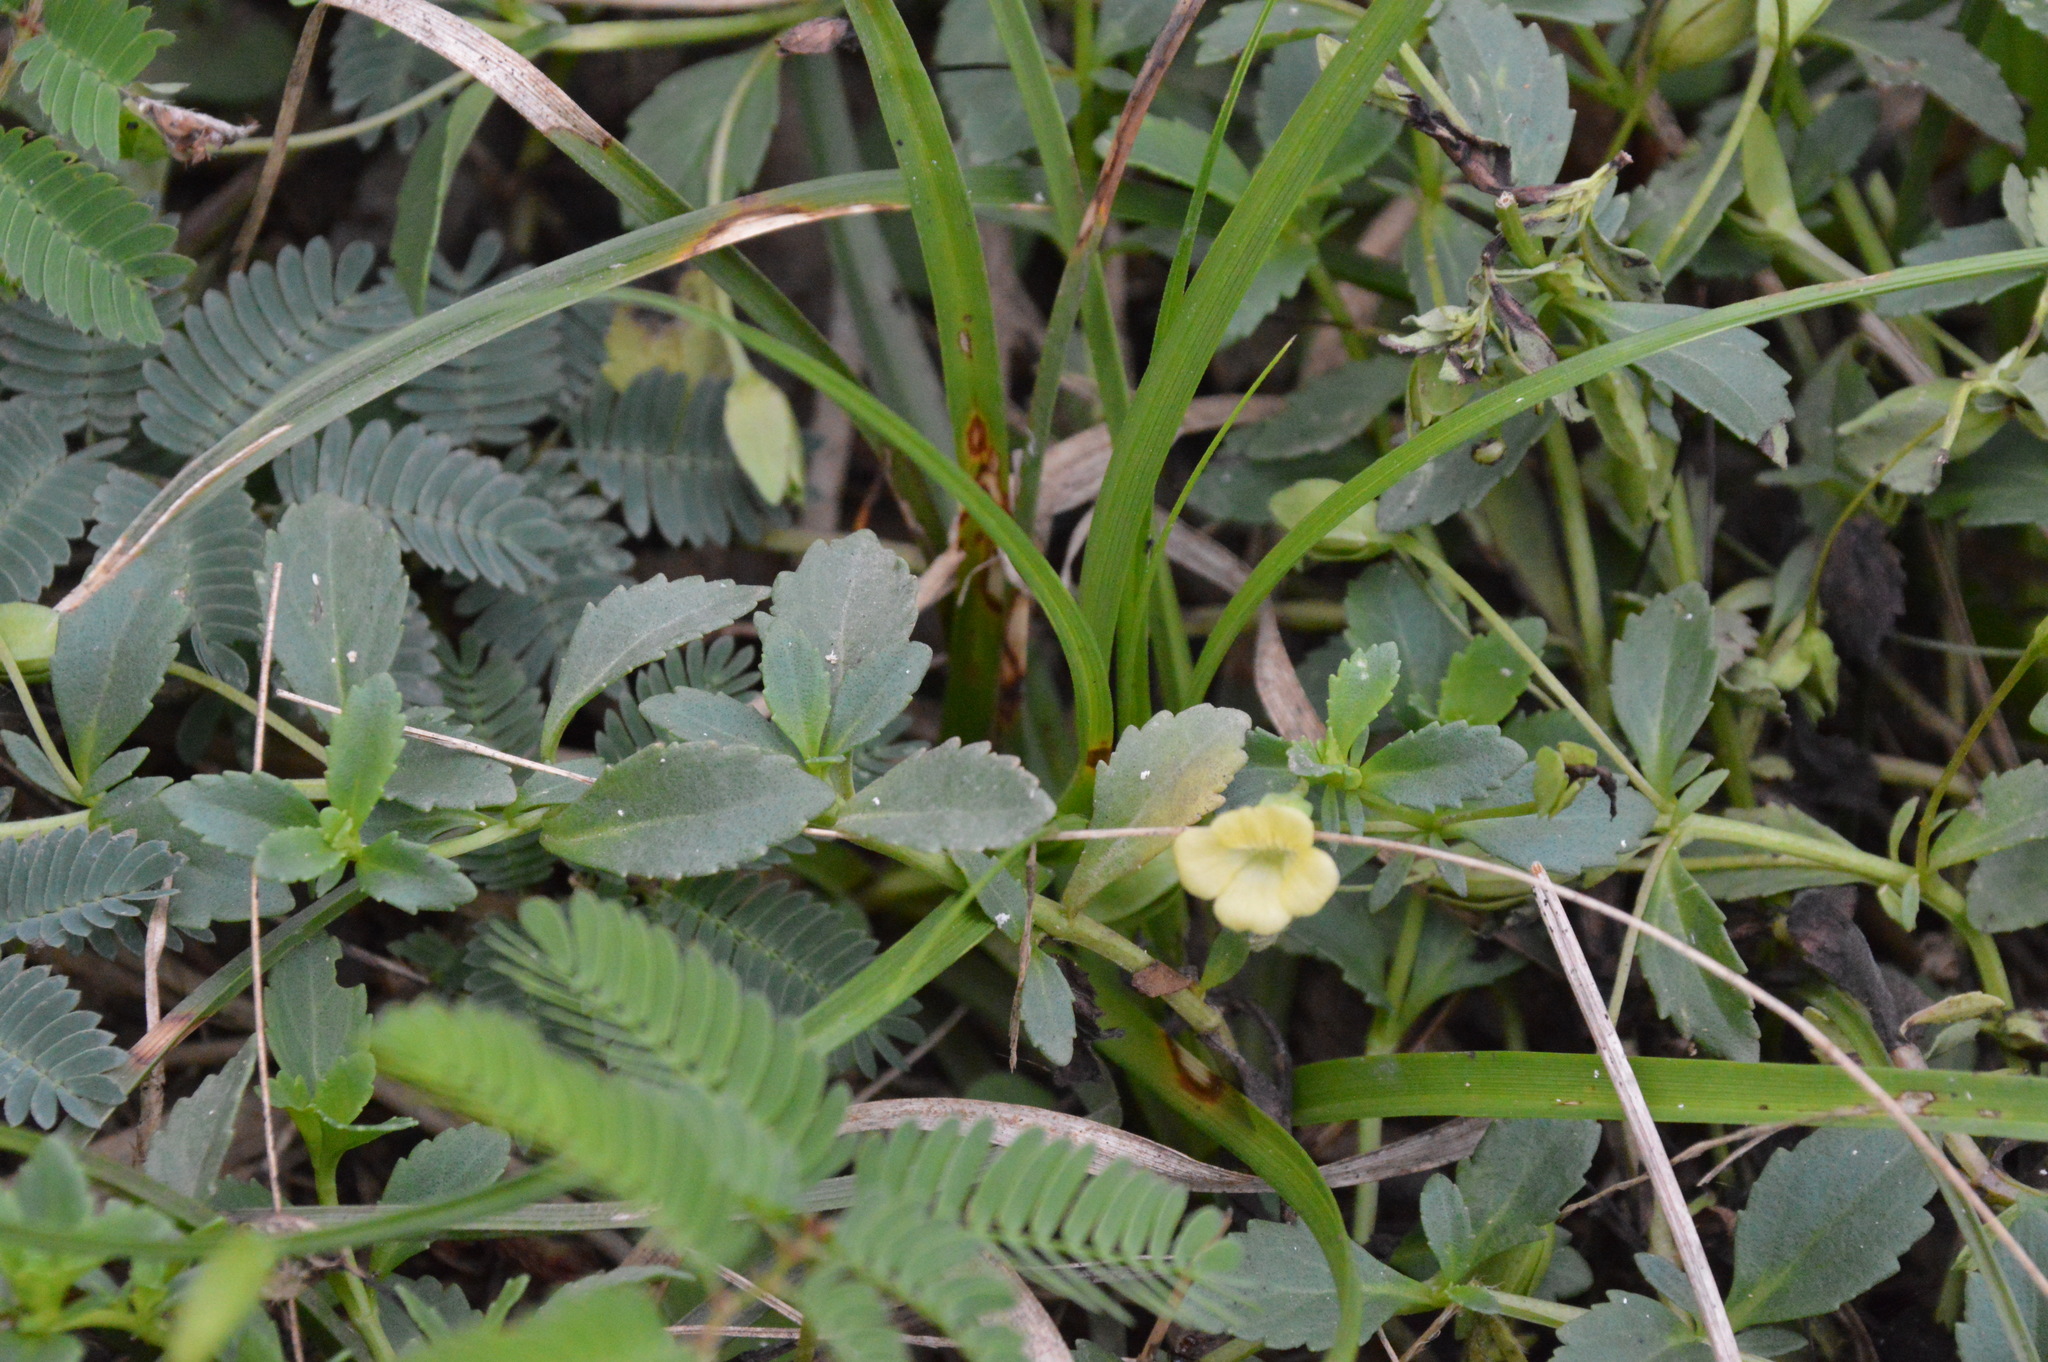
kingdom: Plantae
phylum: Tracheophyta
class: Magnoliopsida
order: Lamiales
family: Plantaginaceae
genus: Mecardonia
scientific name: Mecardonia procumbens
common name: Baby jump-up
